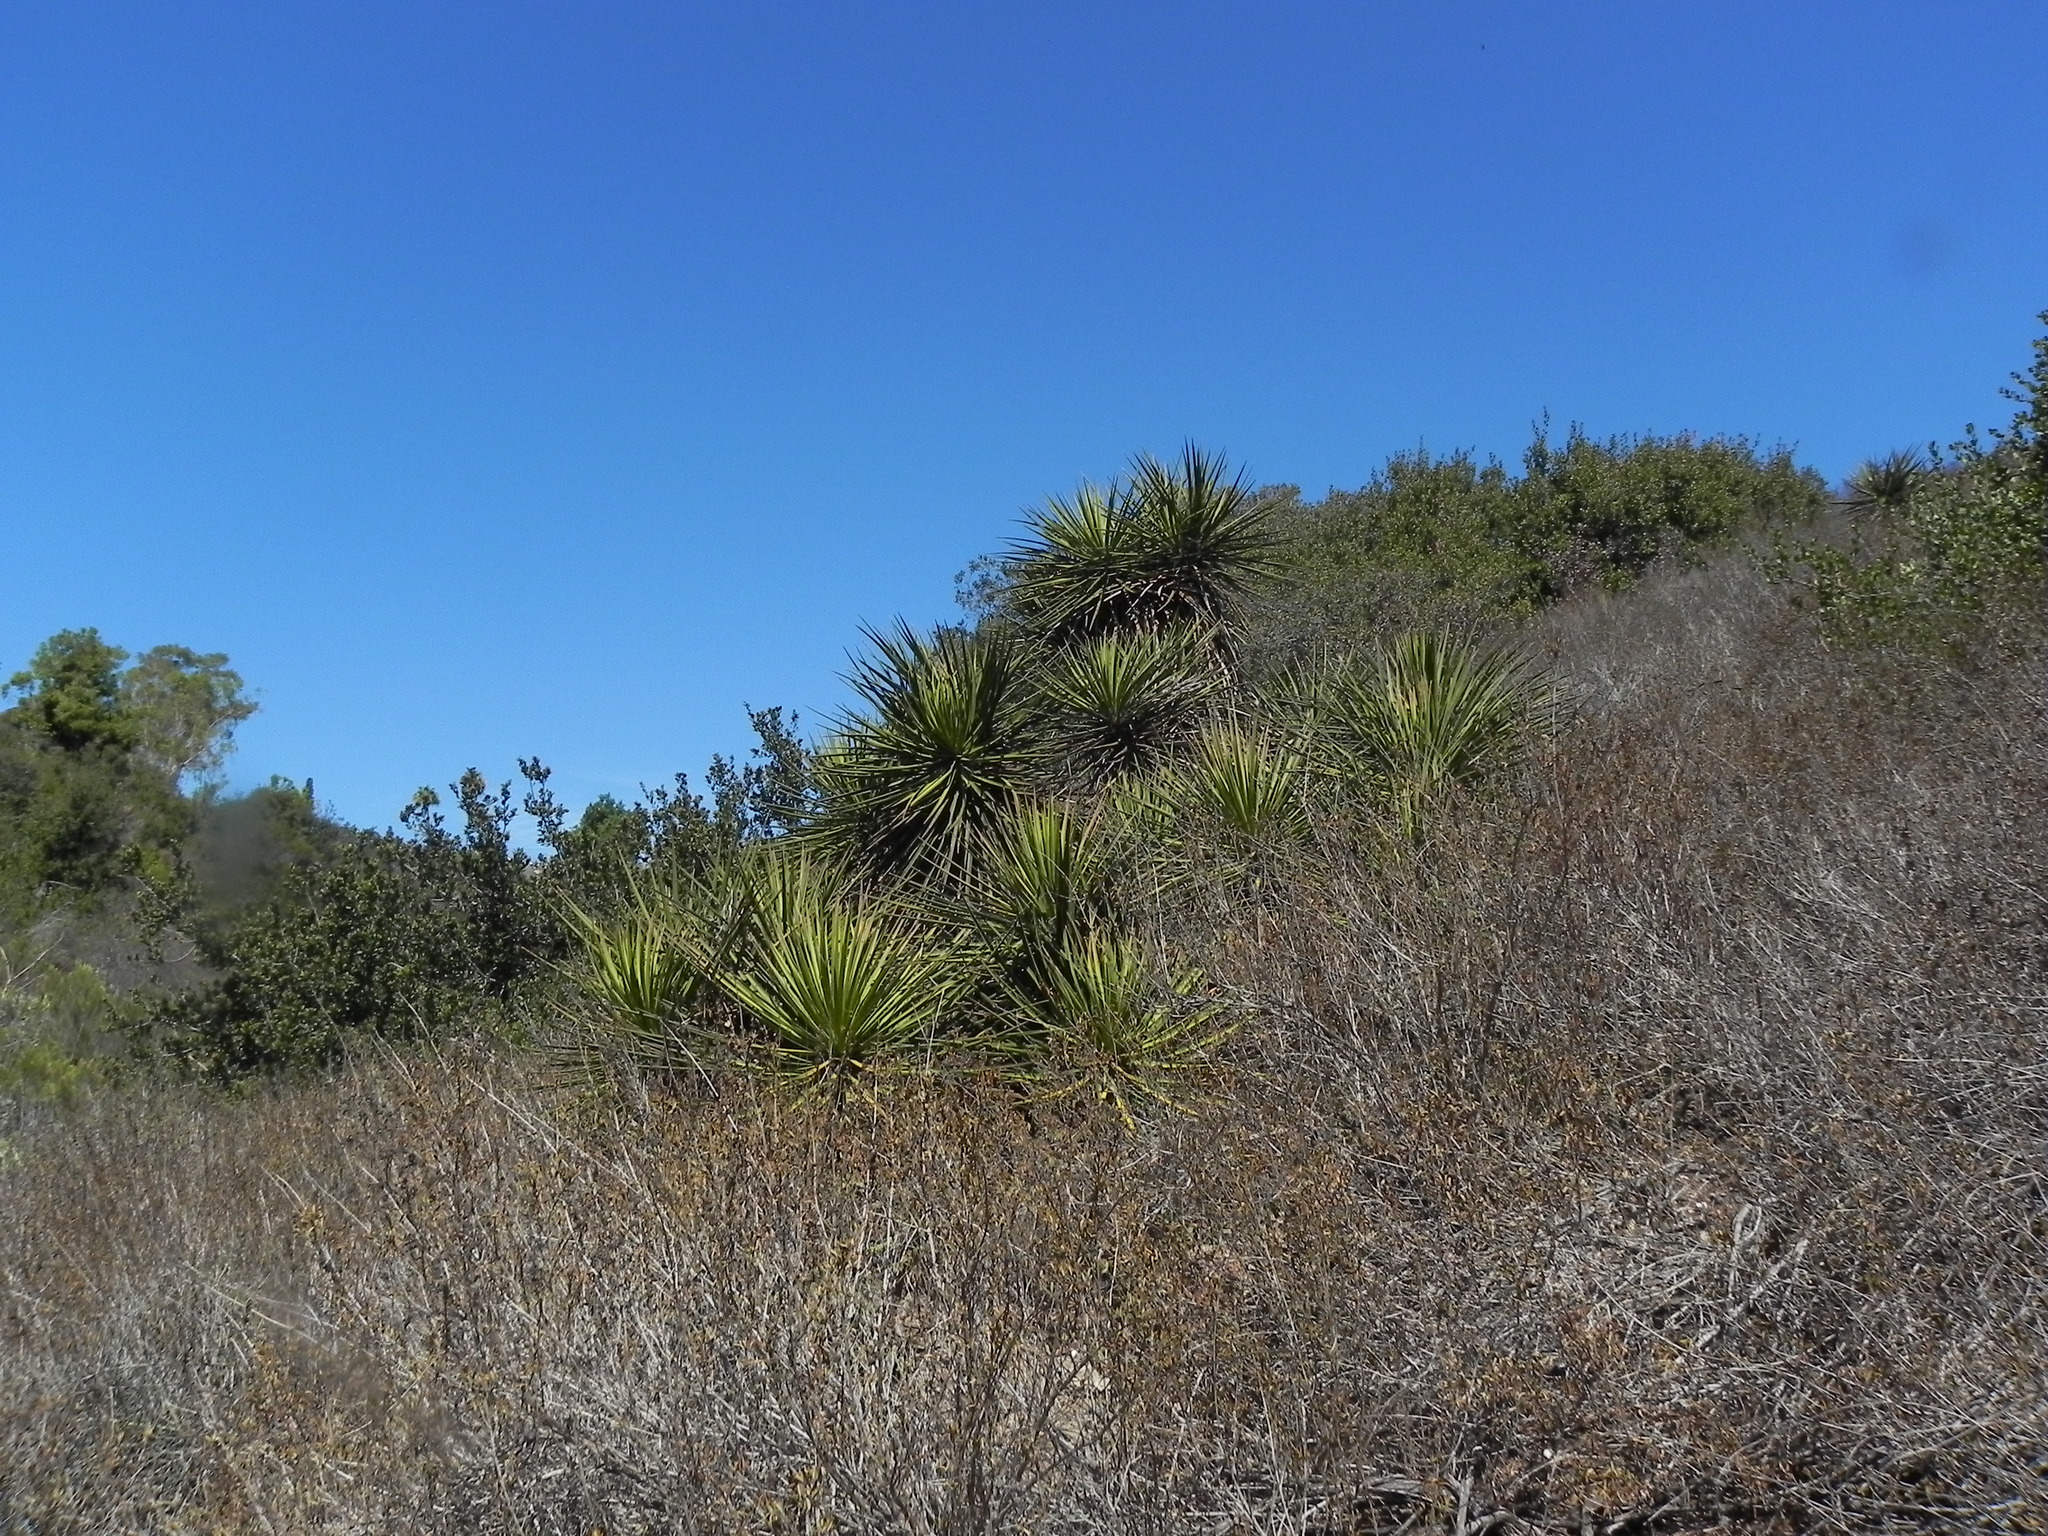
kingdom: Plantae
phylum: Tracheophyta
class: Liliopsida
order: Asparagales
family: Asparagaceae
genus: Yucca
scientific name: Yucca schidigera
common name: Mojave yucca
